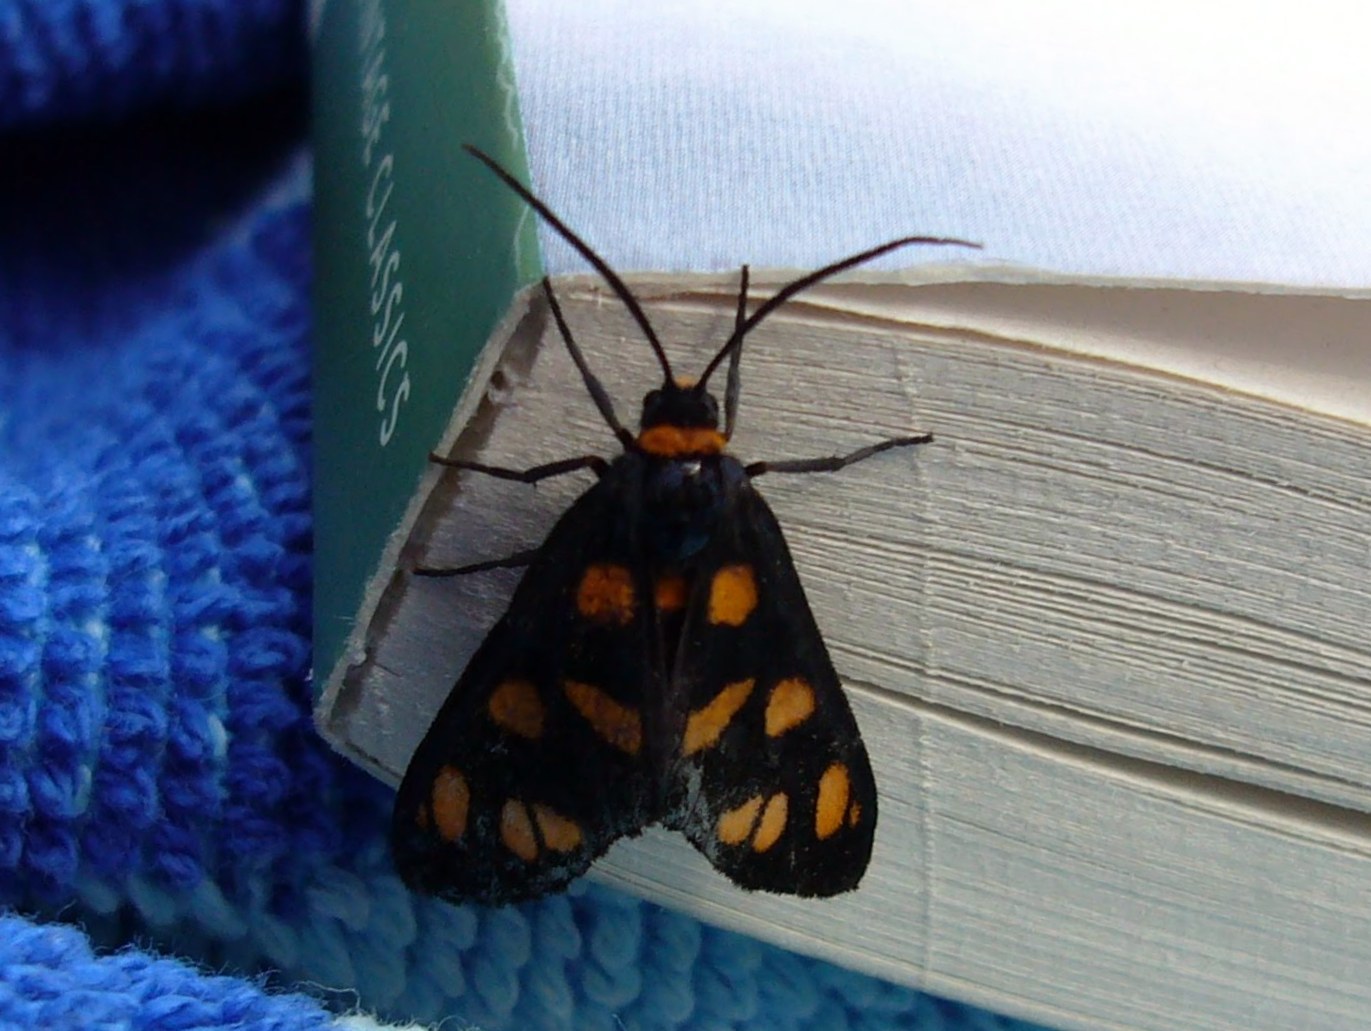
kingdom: Animalia
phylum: Arthropoda
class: Insecta
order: Lepidoptera
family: Erebidae
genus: Amata
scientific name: Amata nigriceps
